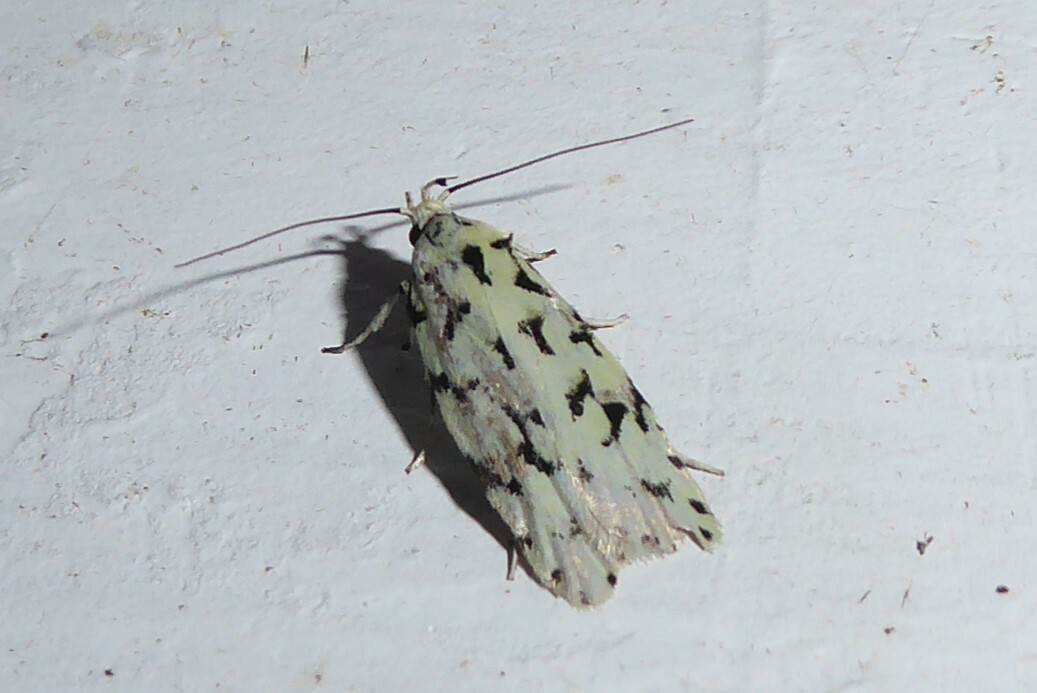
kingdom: Animalia
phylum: Arthropoda
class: Insecta
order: Lepidoptera
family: Oecophoridae
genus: Izatha
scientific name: Izatha huttoni
